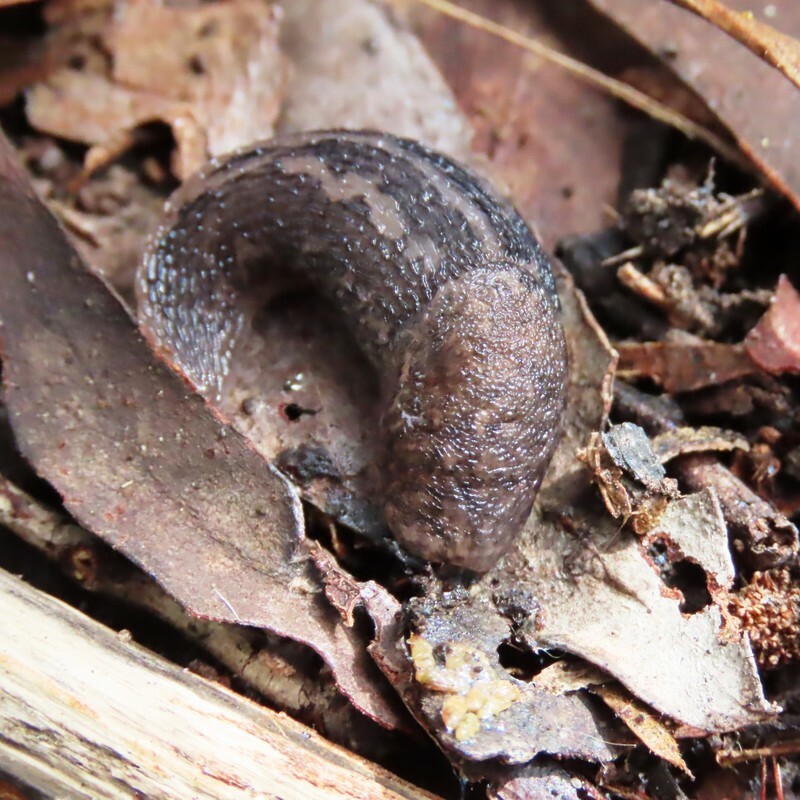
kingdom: Animalia
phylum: Mollusca
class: Gastropoda
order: Stylommatophora
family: Limacidae
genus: Limax
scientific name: Limax maximus
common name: Great grey slug
